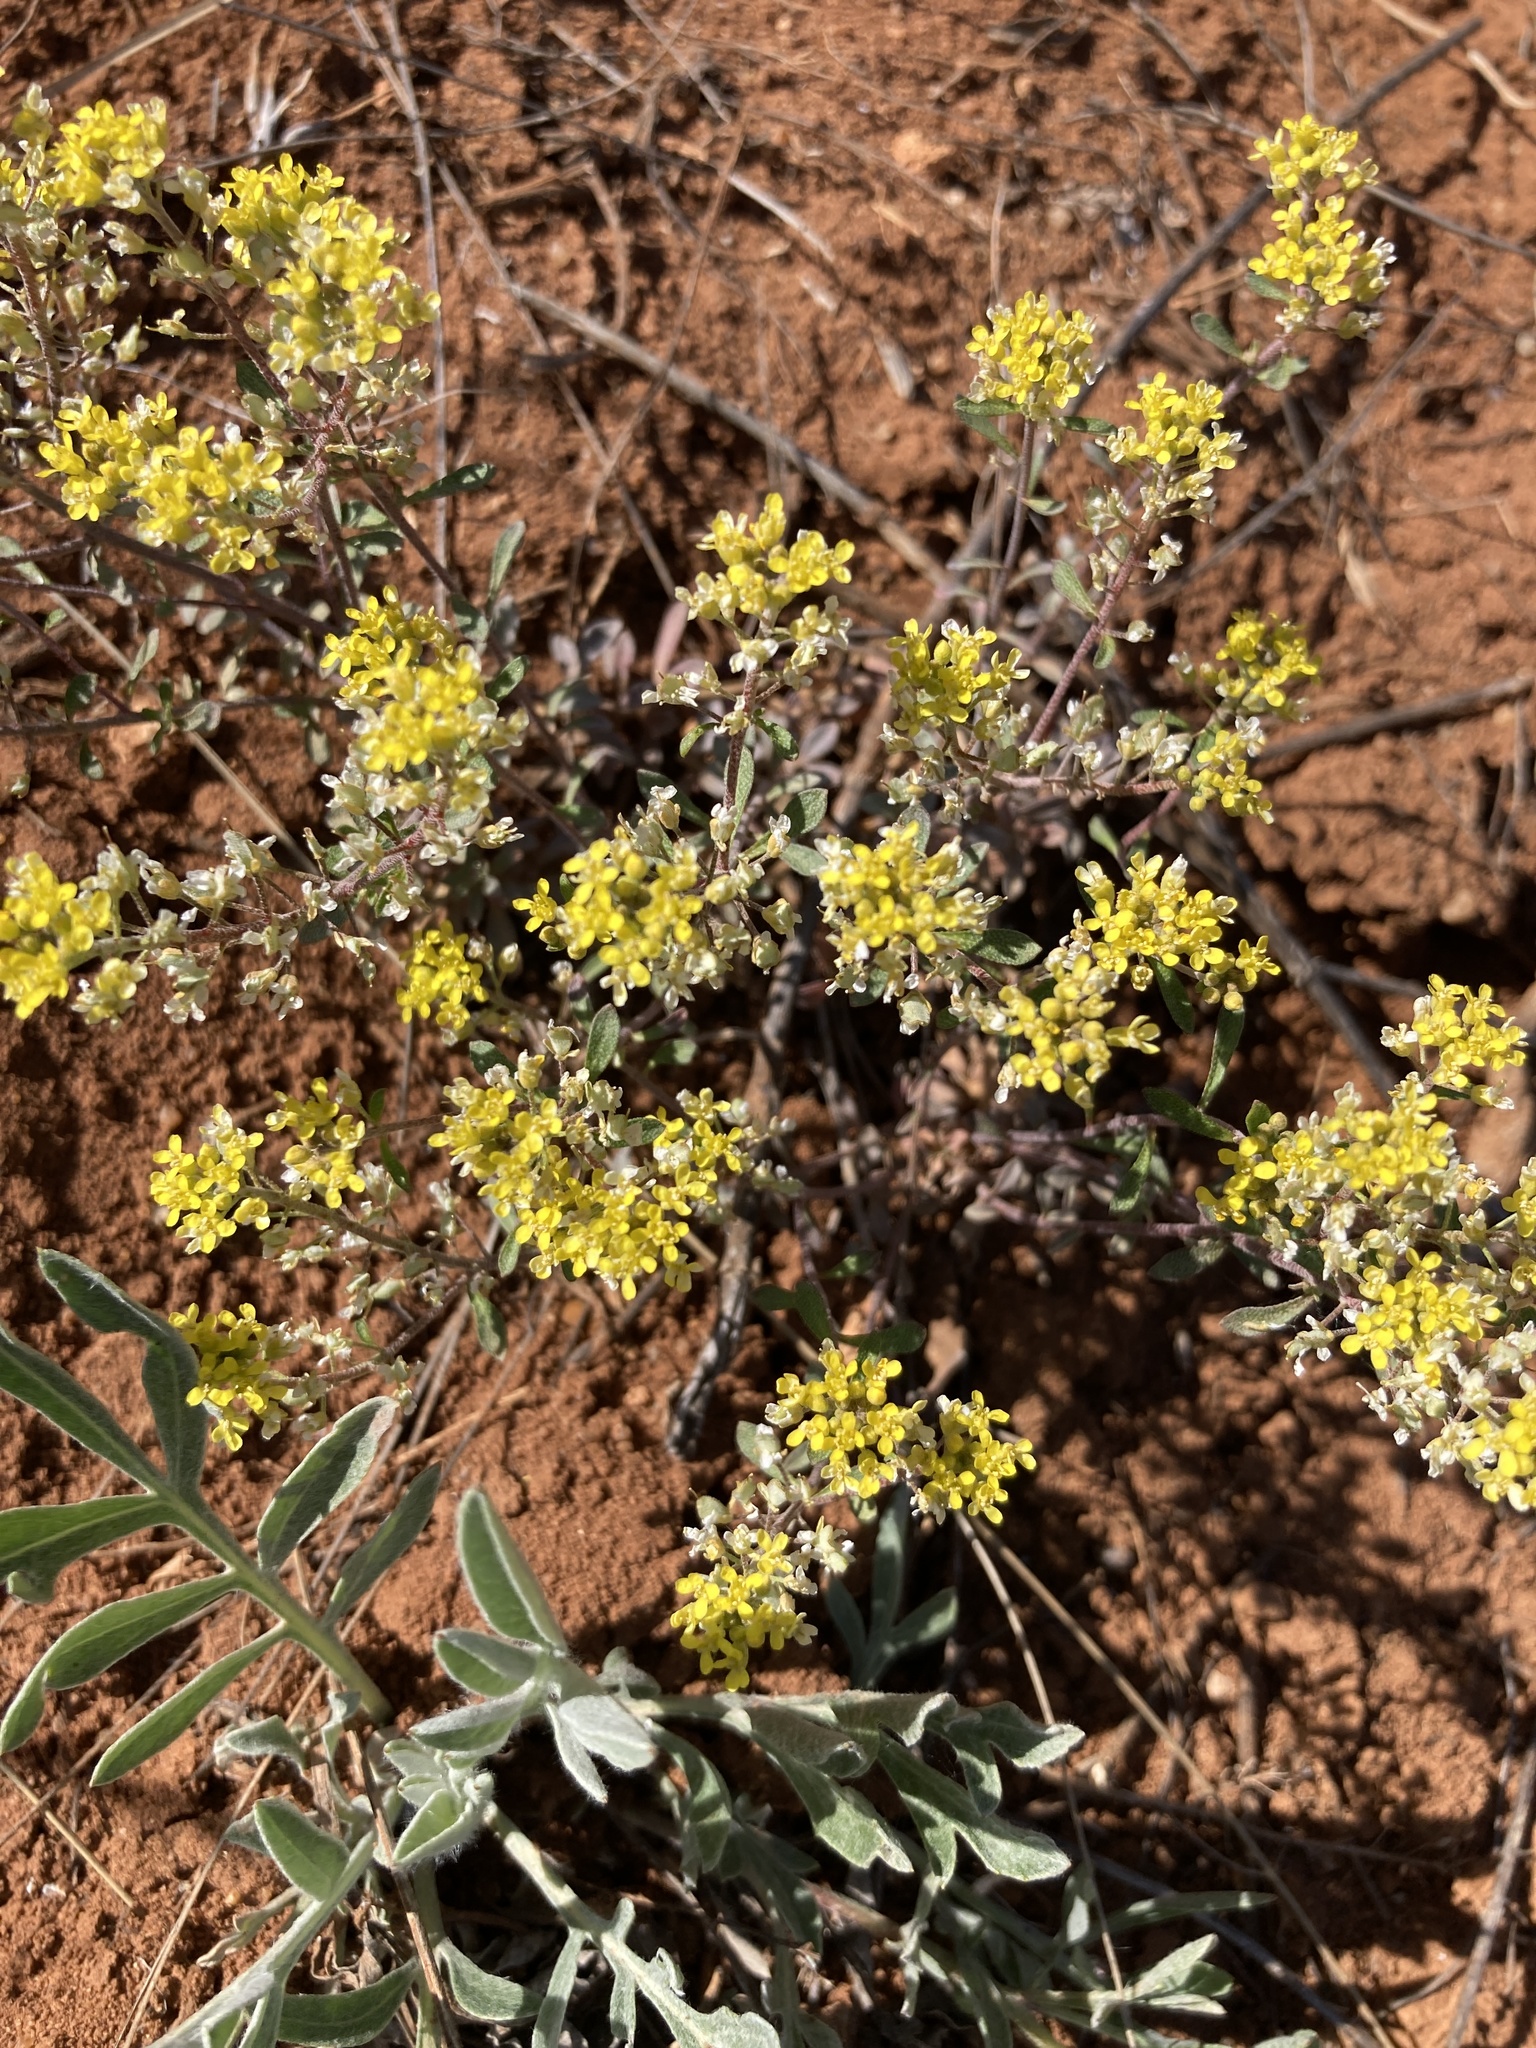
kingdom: Plantae
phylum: Tracheophyta
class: Magnoliopsida
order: Brassicales
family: Brassicaceae
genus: Odontarrhena
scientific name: Odontarrhena tortuosa
